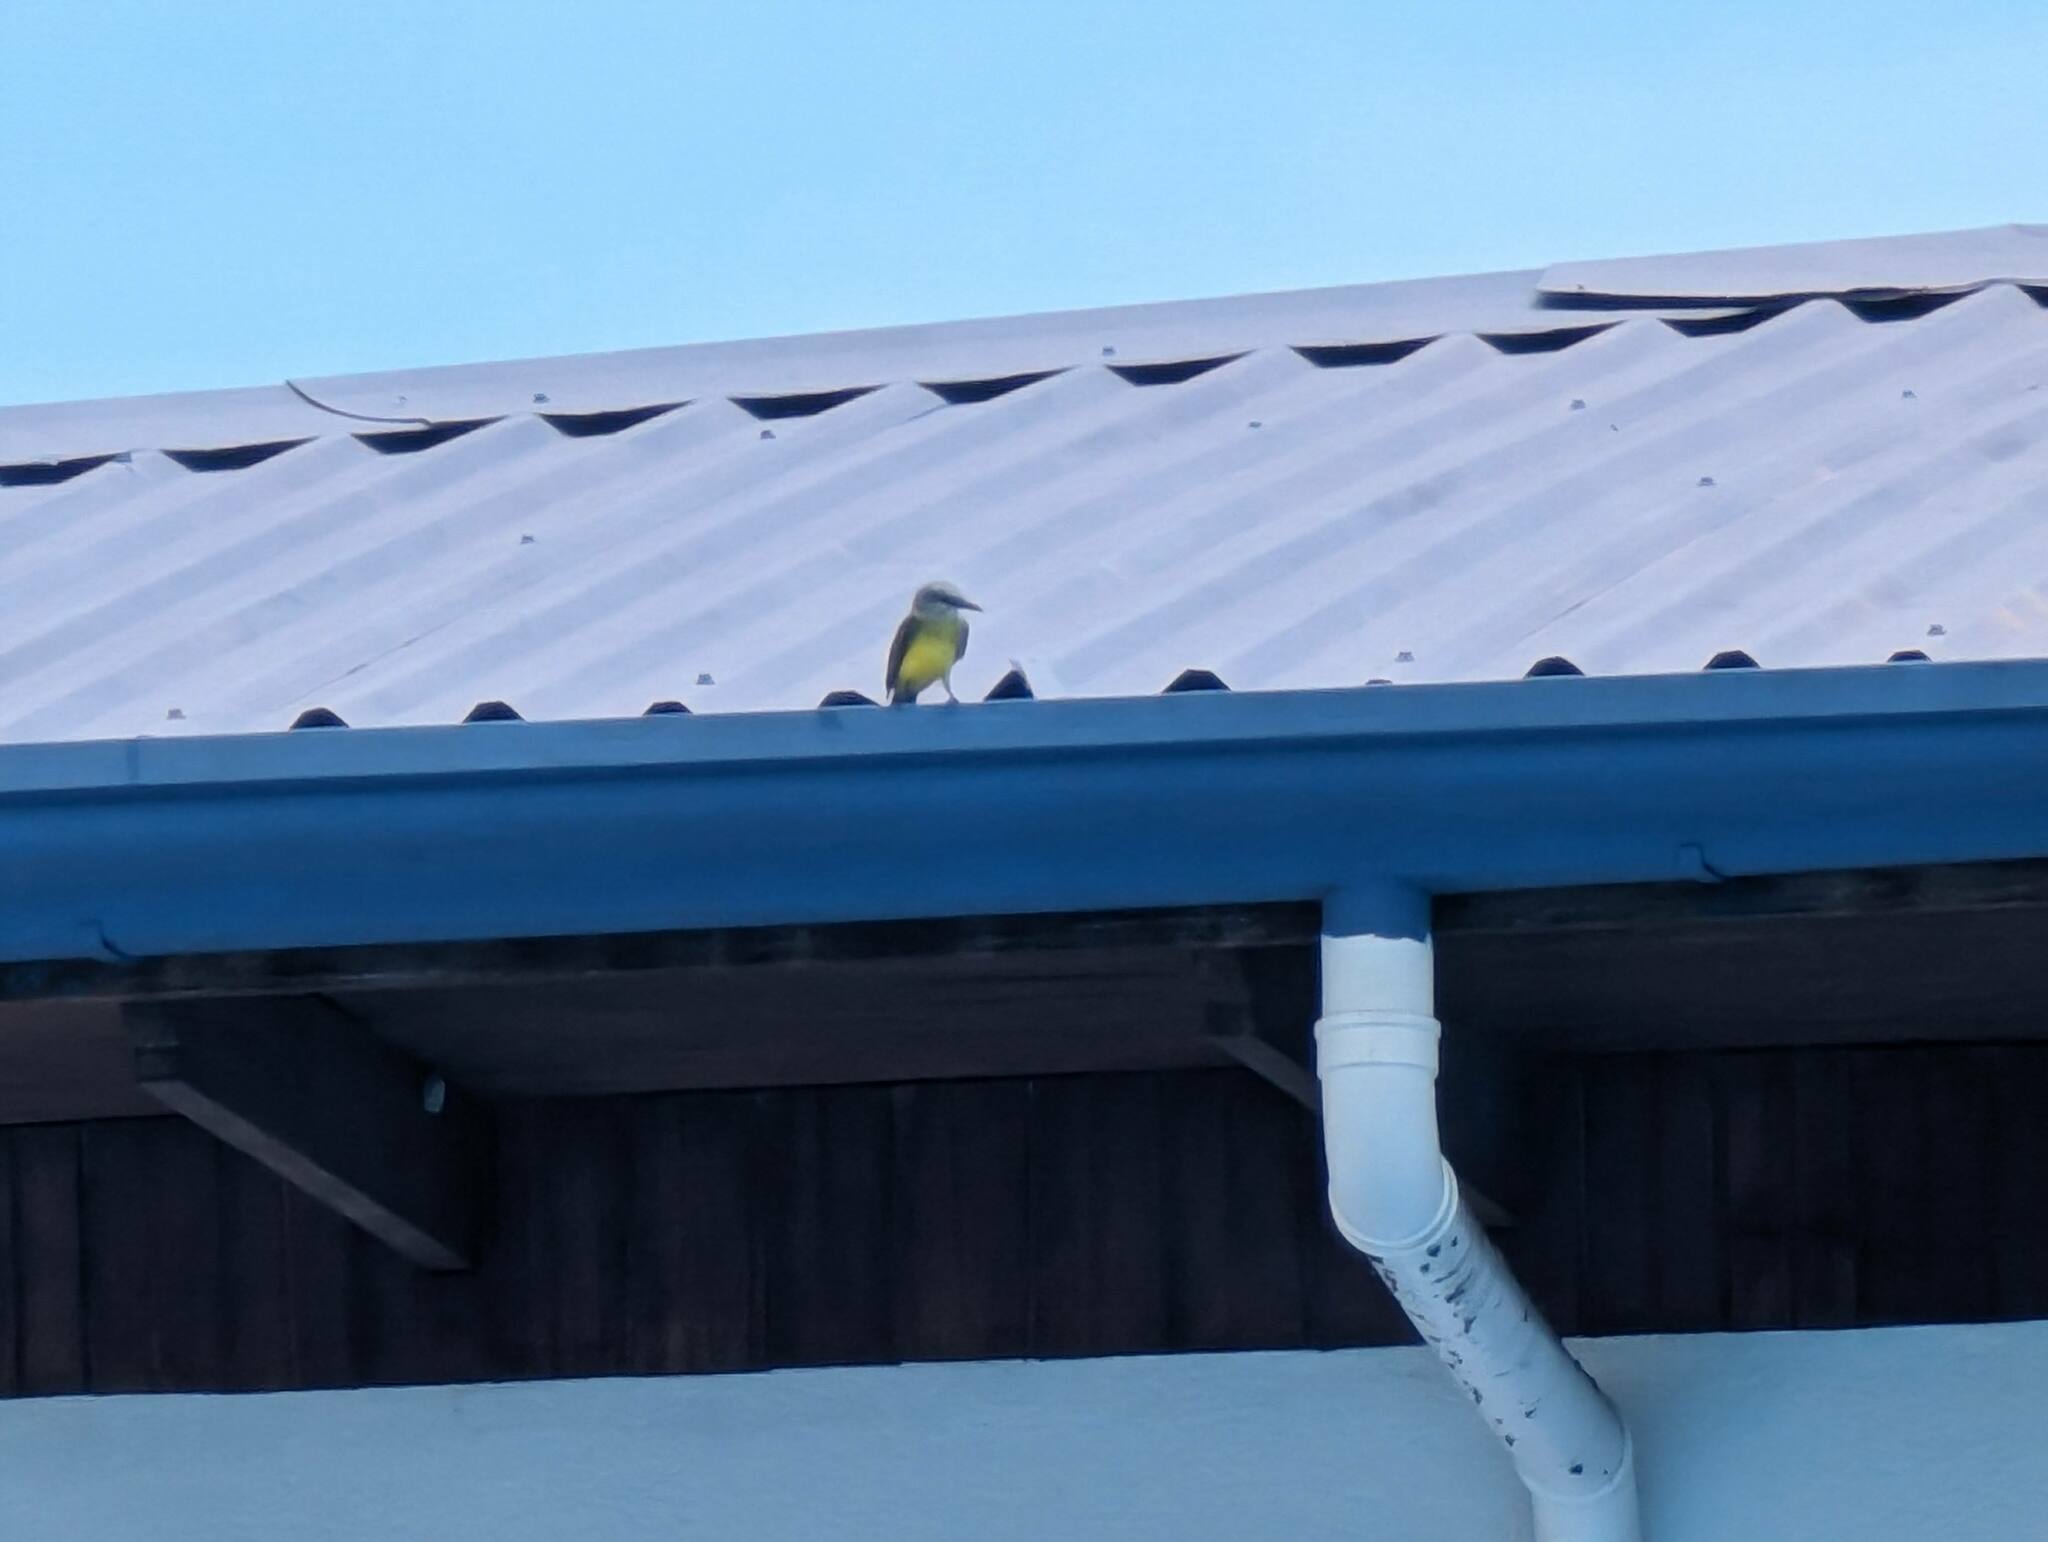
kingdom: Animalia
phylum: Chordata
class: Aves
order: Passeriformes
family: Tyrannidae
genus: Tyrannus
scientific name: Tyrannus melancholicus
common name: Tropical kingbird
